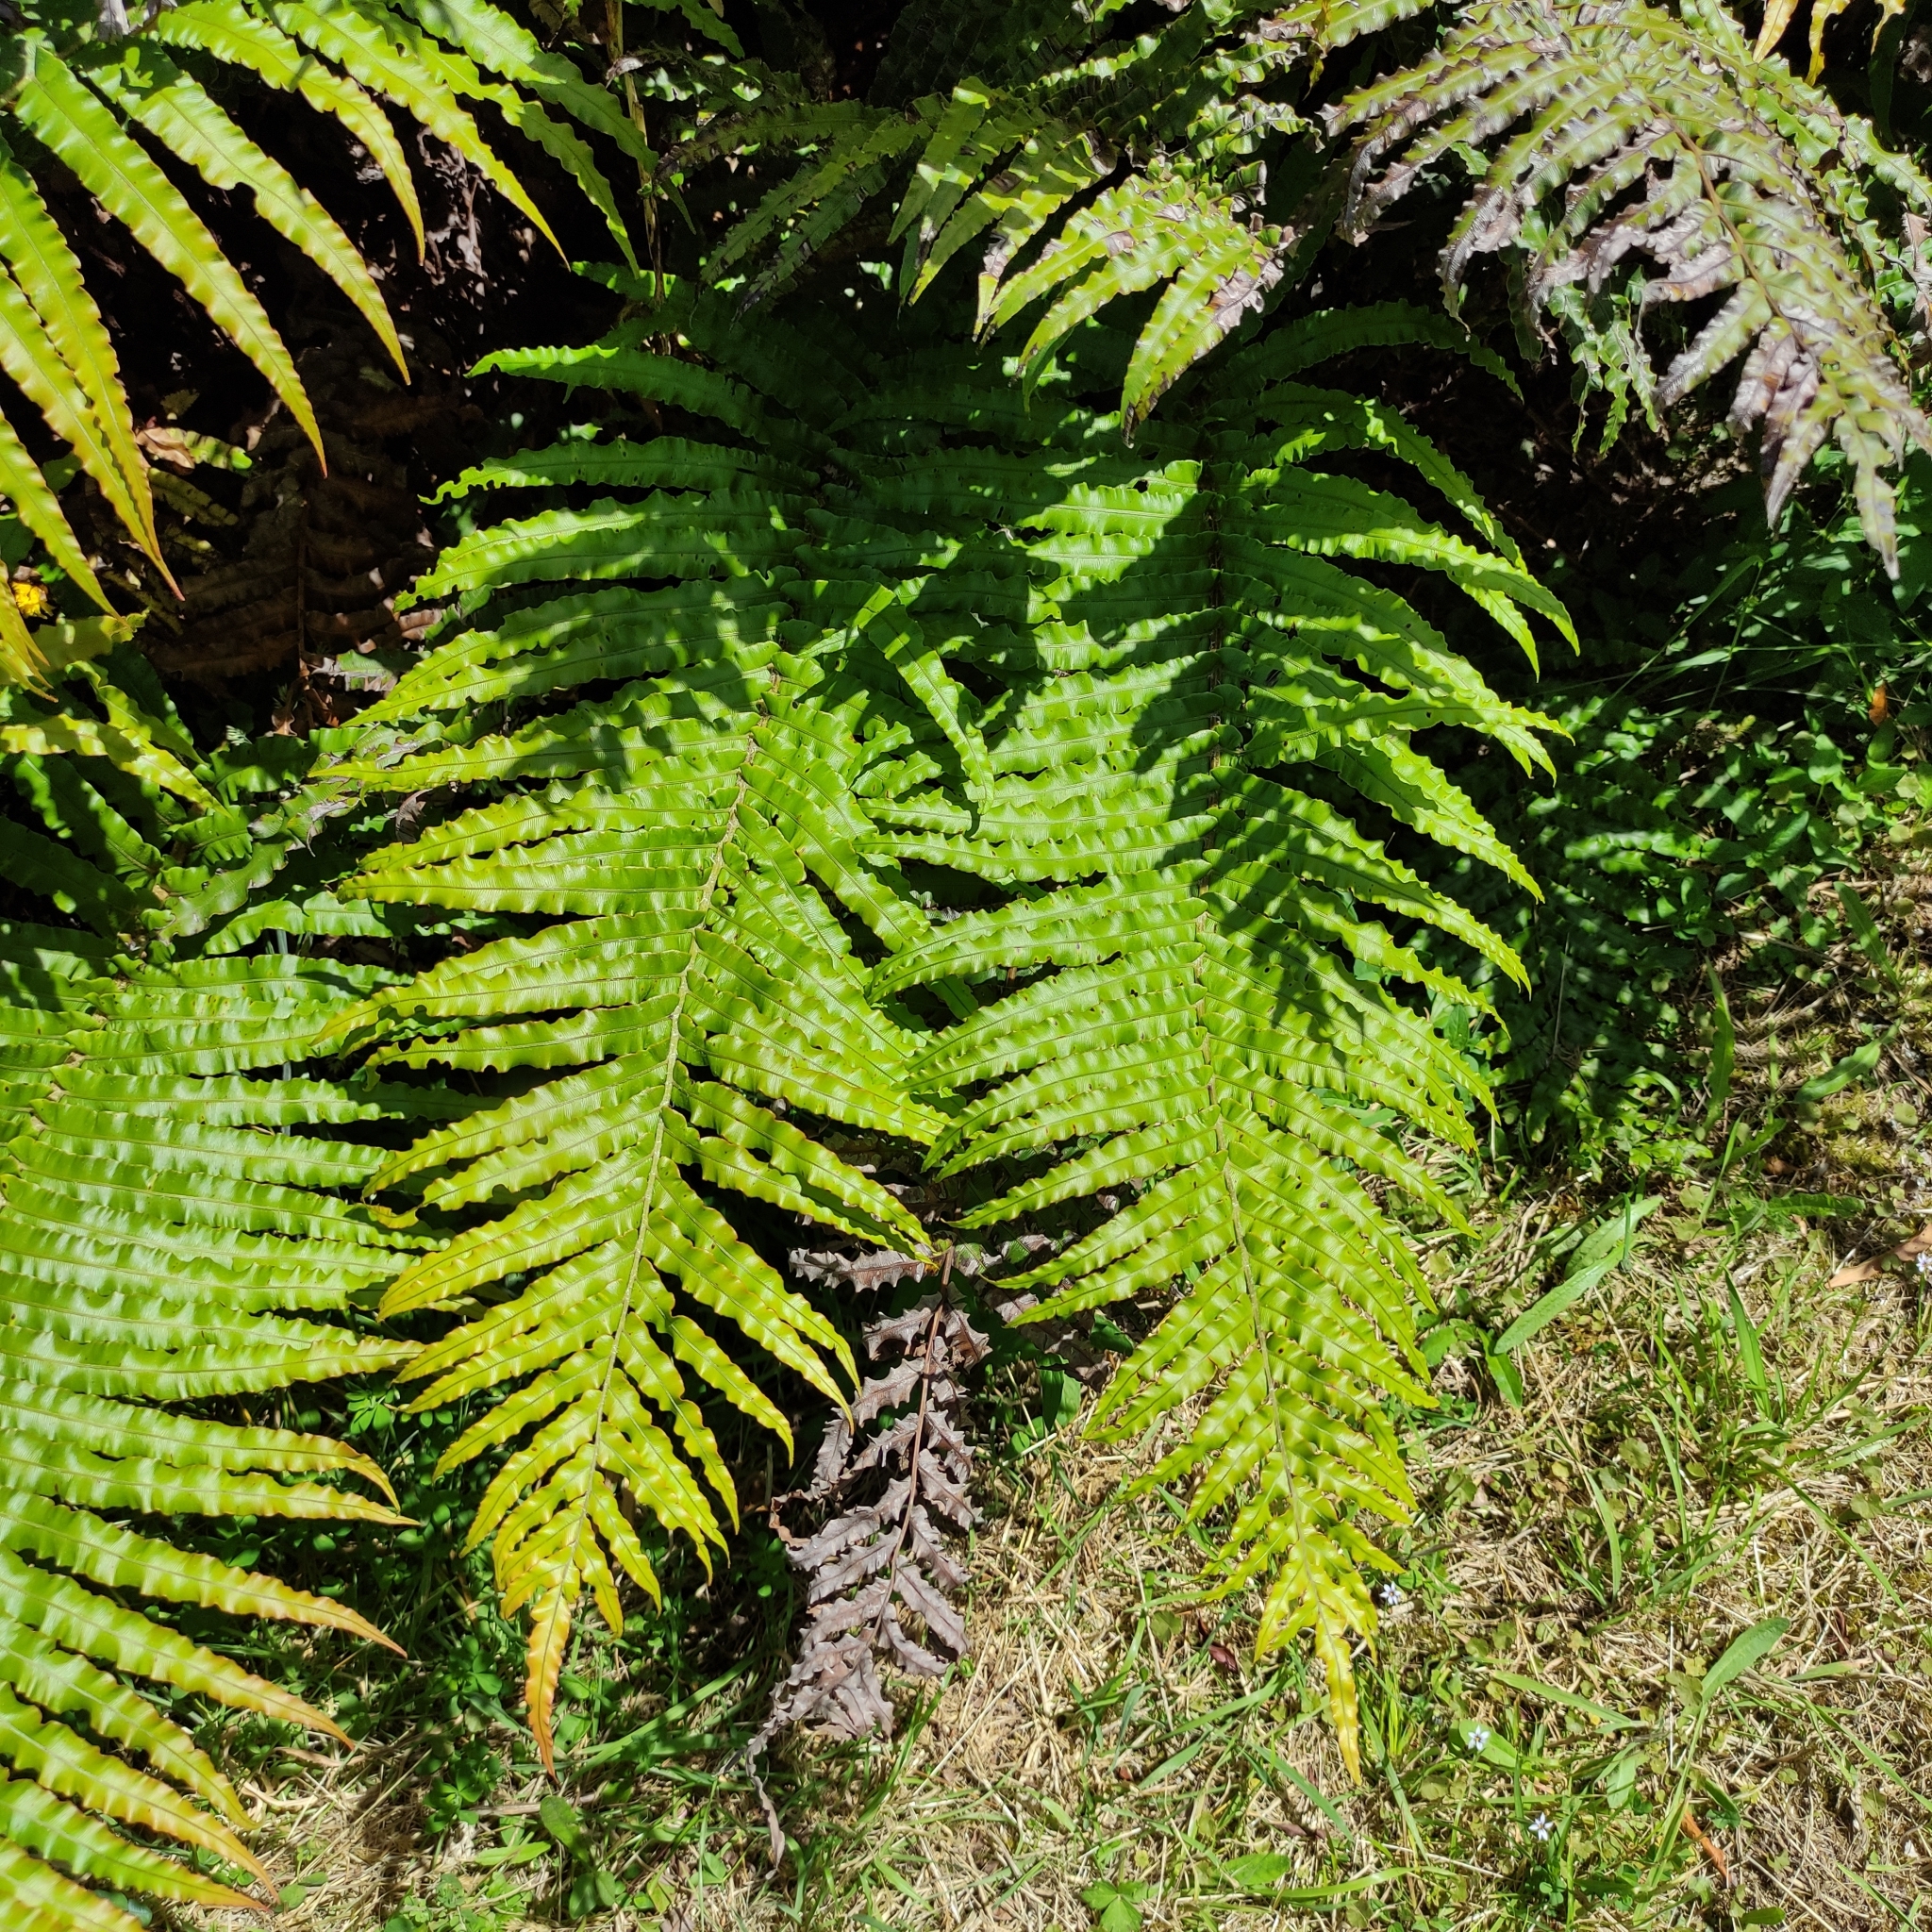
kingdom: Plantae
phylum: Tracheophyta
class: Polypodiopsida
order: Polypodiales
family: Blechnaceae
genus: Parablechnum
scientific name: Parablechnum novae-zelandiae
